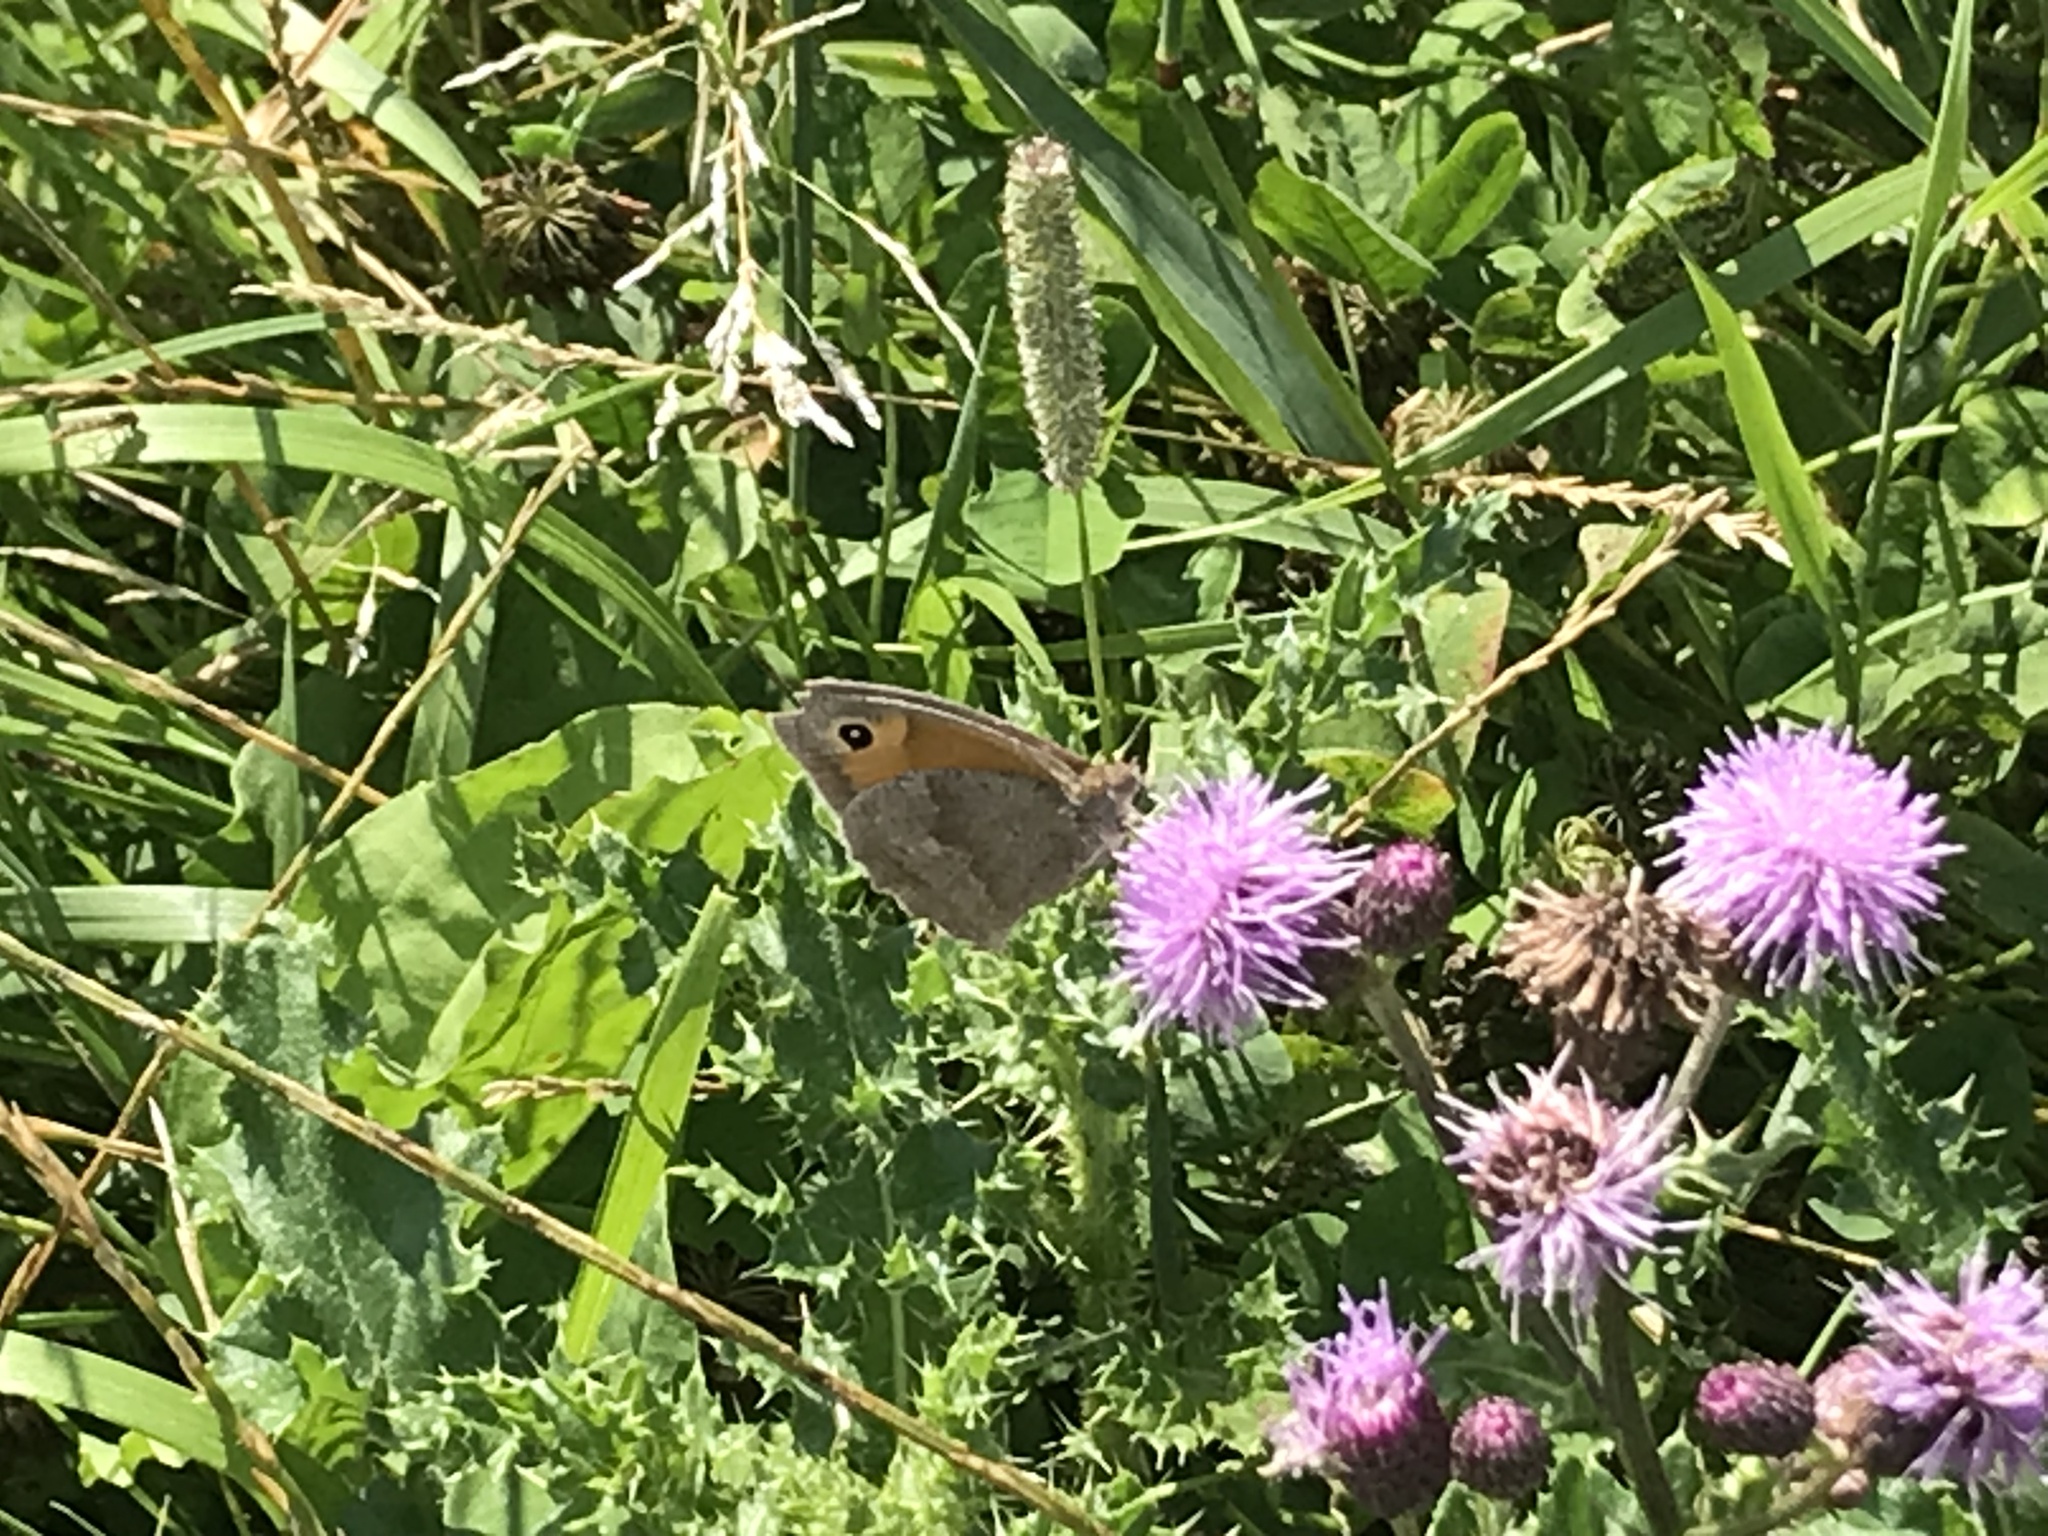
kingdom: Animalia
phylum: Arthropoda
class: Insecta
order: Lepidoptera
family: Nymphalidae
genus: Maniola
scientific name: Maniola jurtina
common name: Meadow brown
